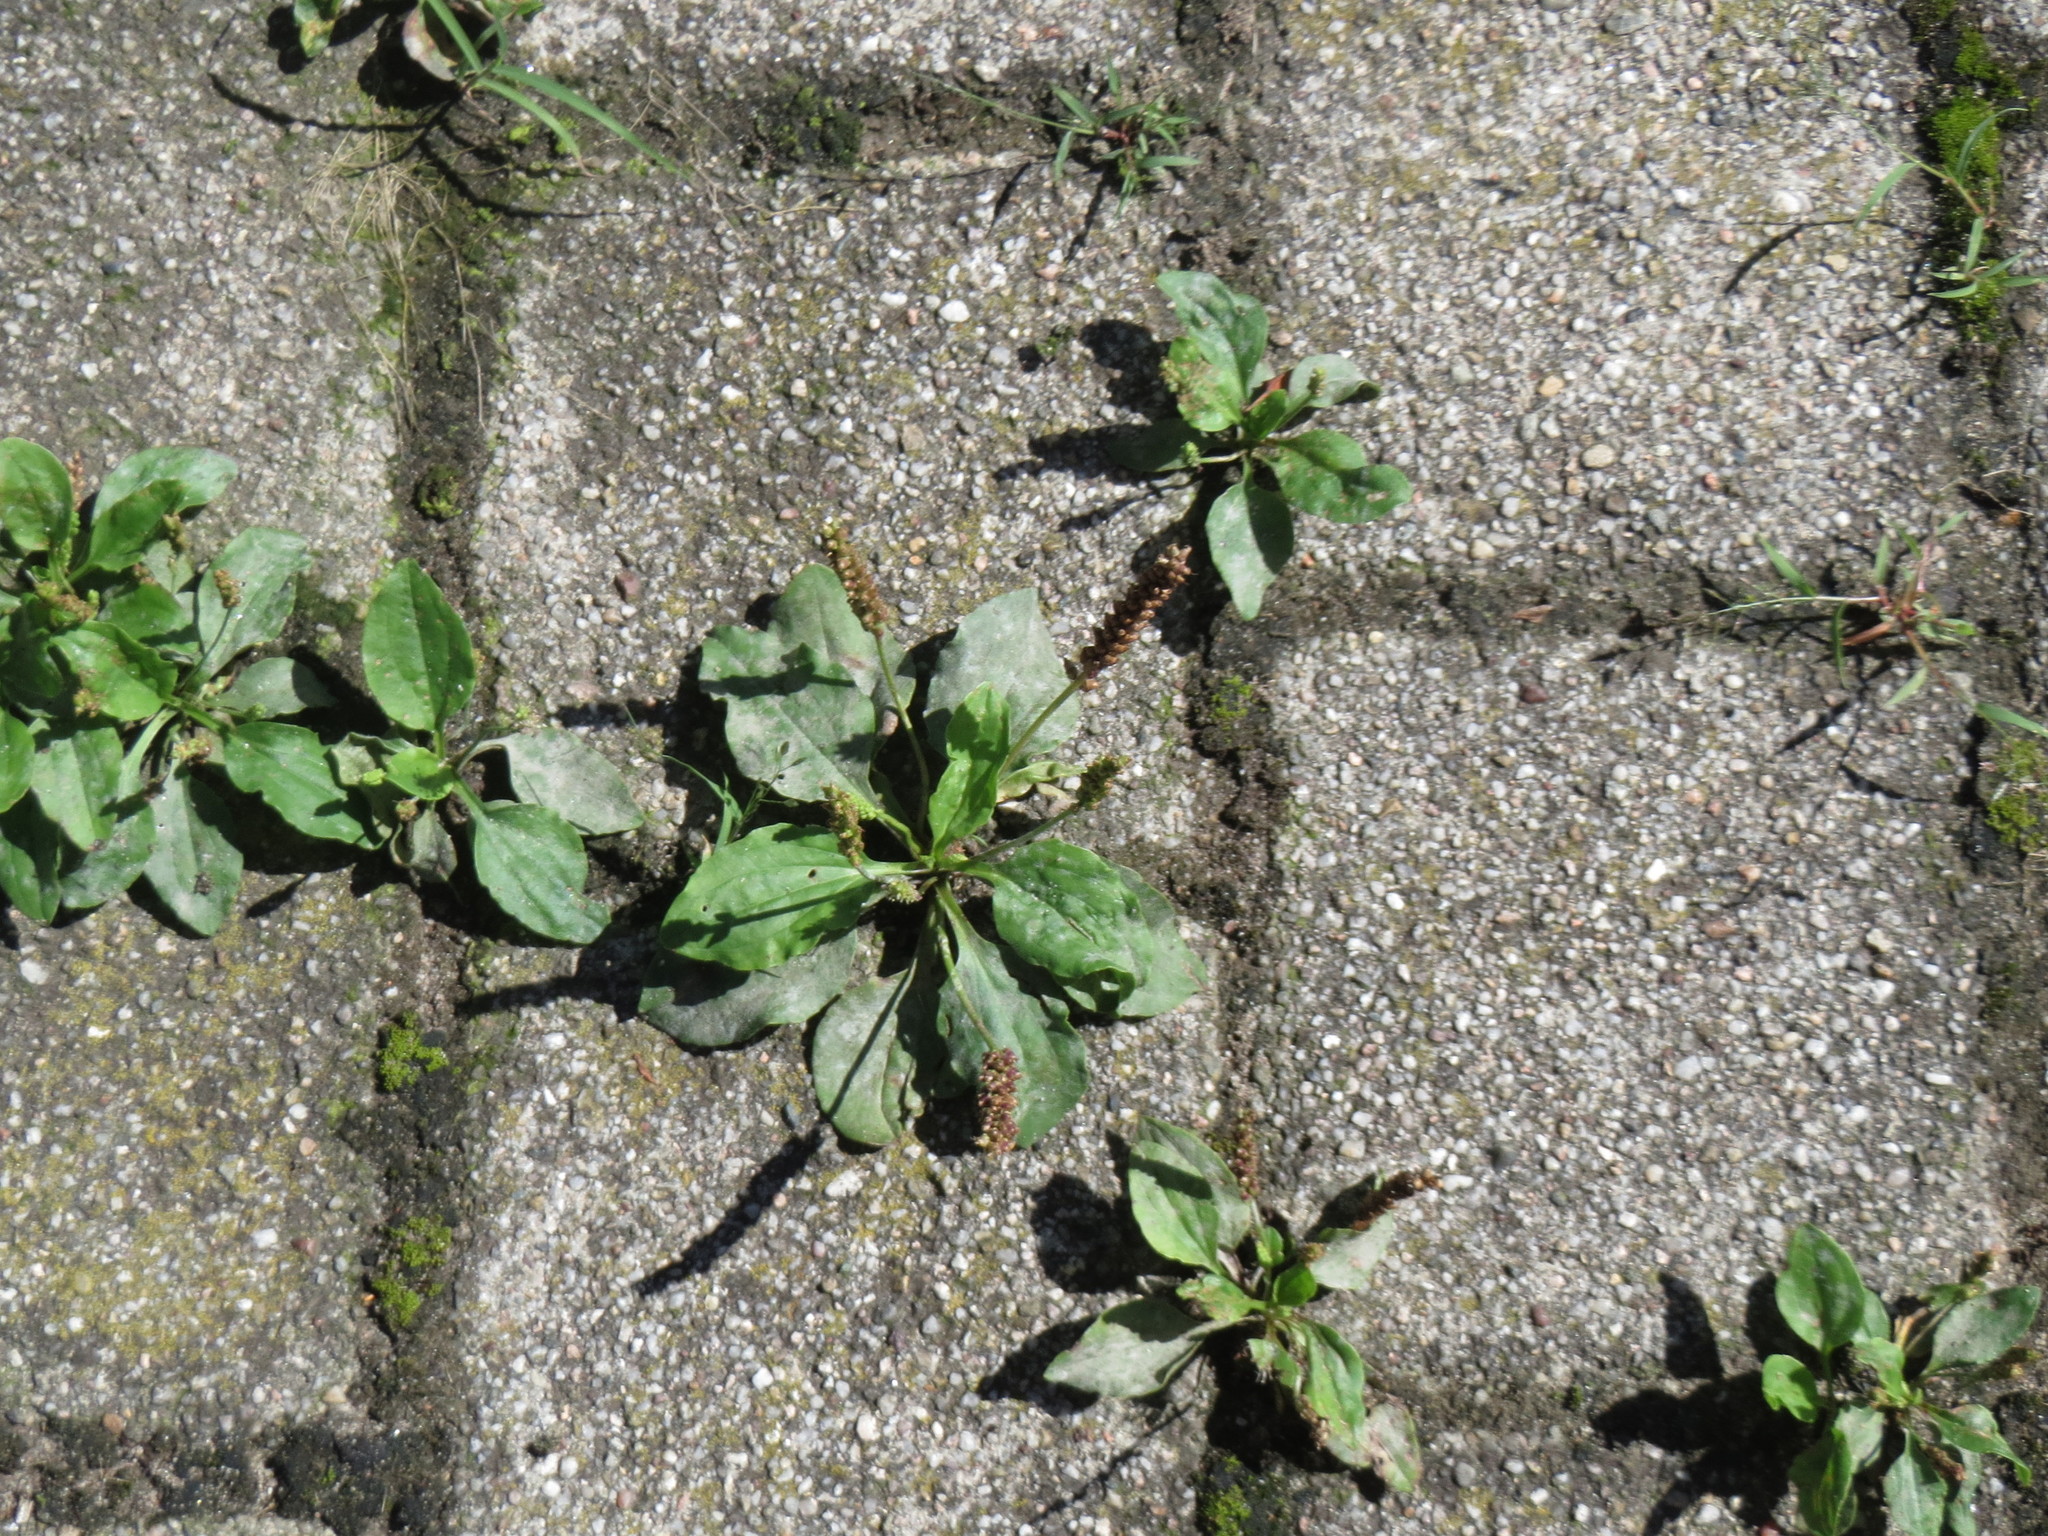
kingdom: Plantae
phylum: Tracheophyta
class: Magnoliopsida
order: Lamiales
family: Plantaginaceae
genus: Plantago
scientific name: Plantago major
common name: Common plantain
